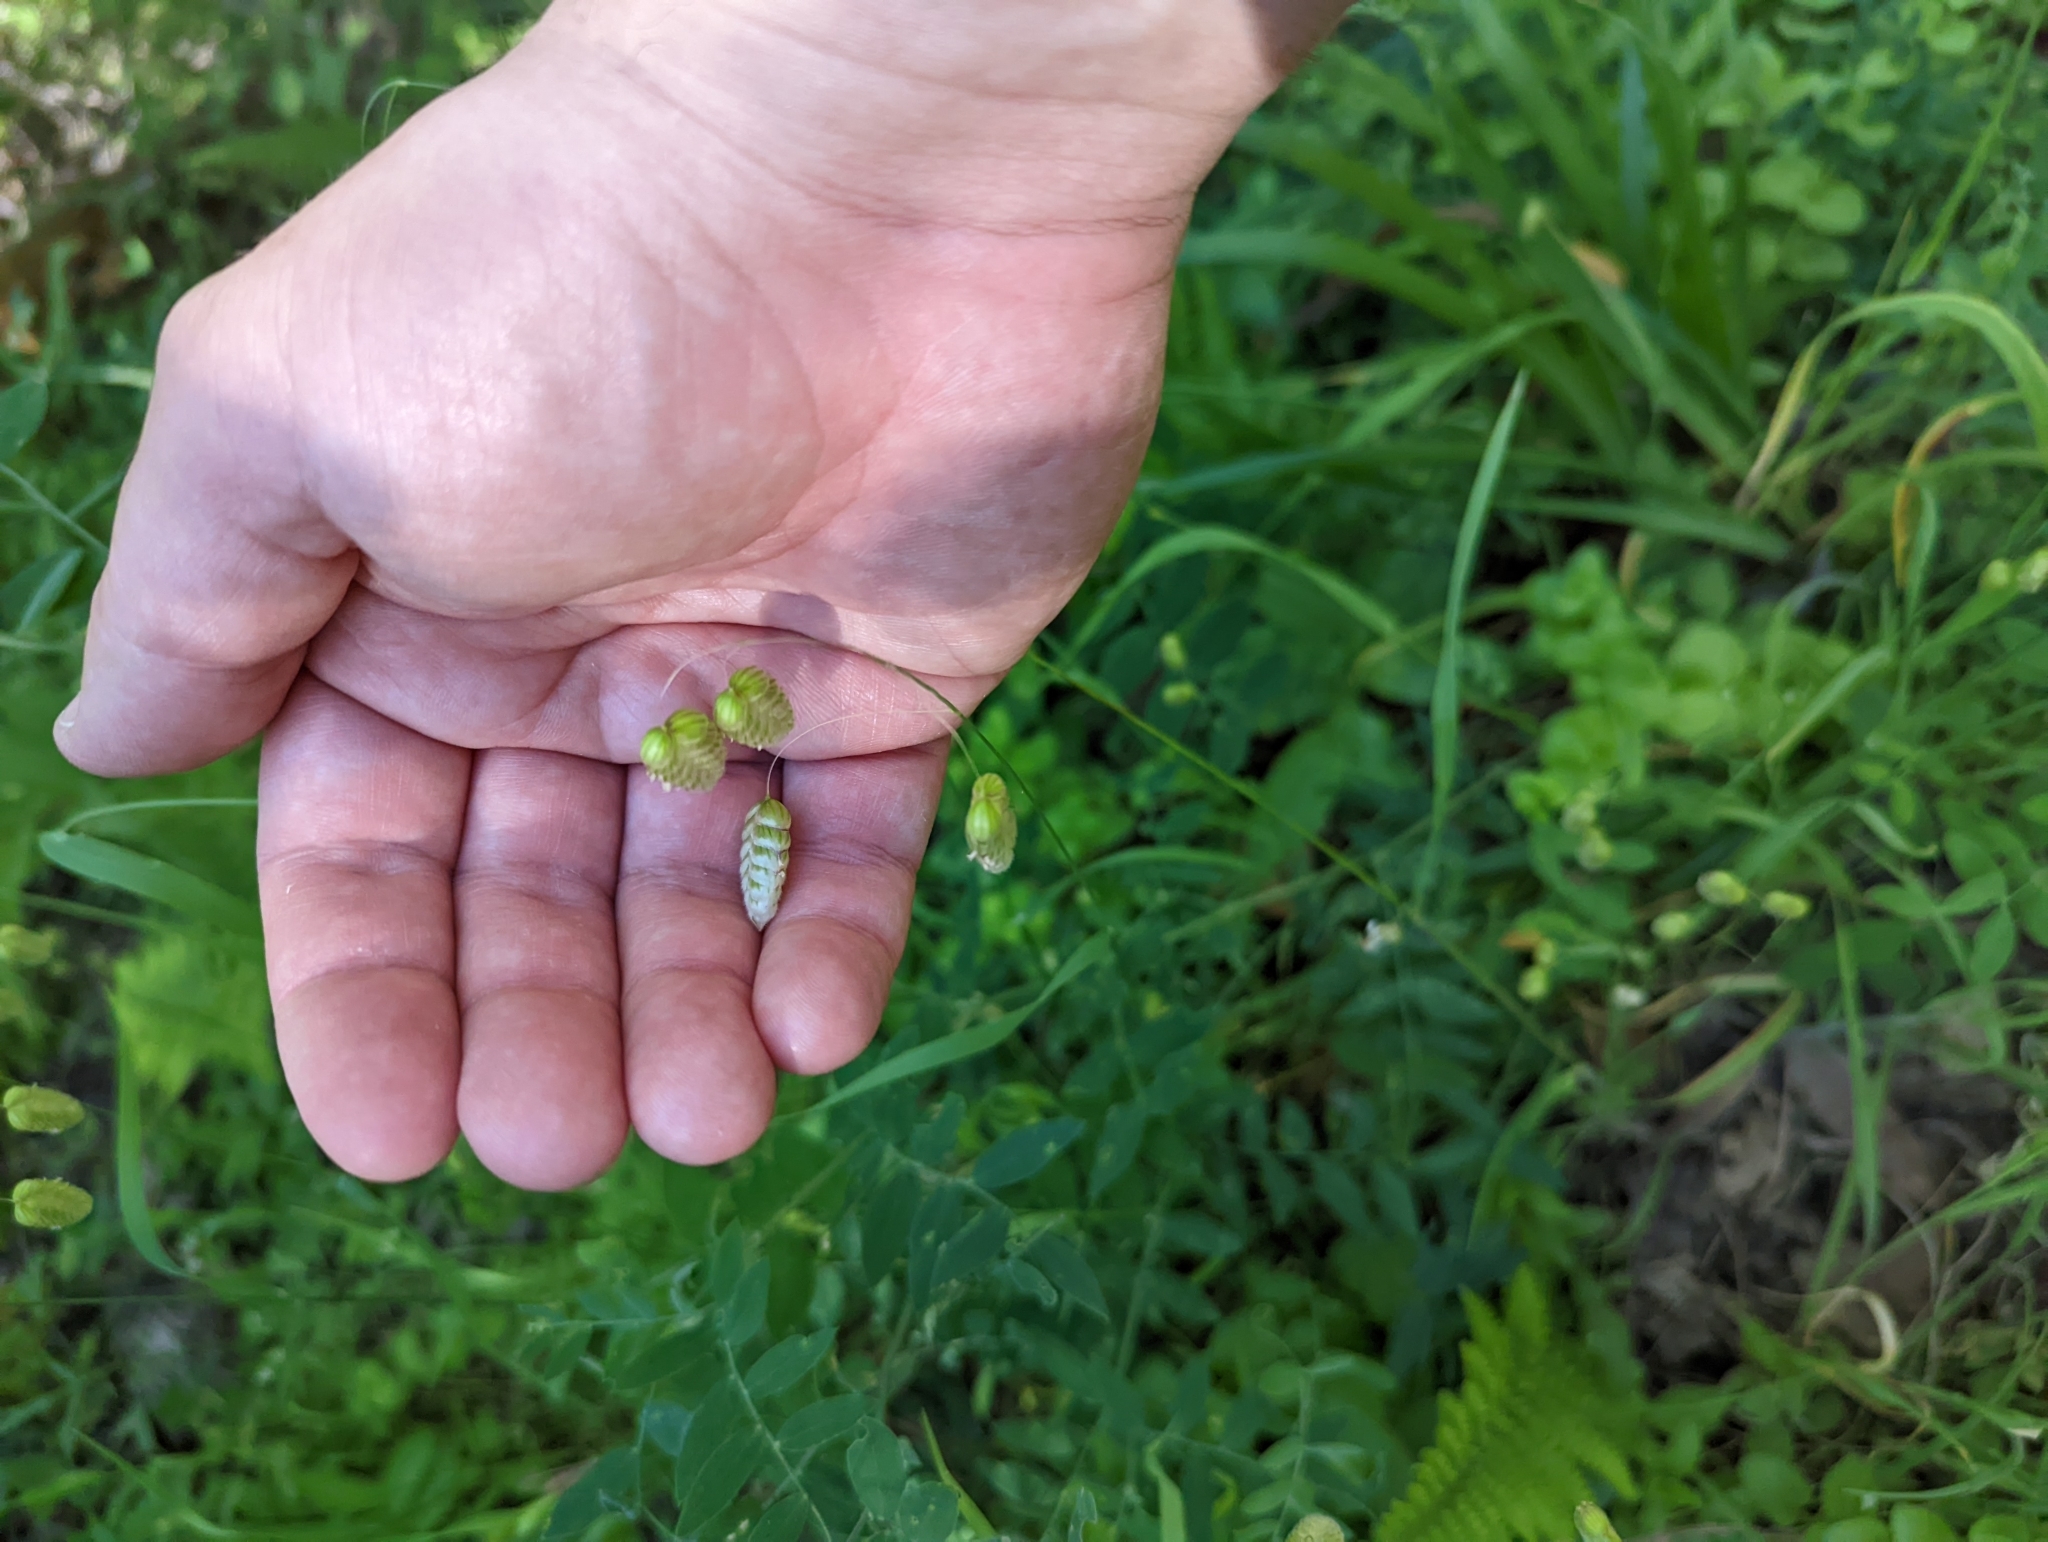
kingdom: Plantae
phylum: Tracheophyta
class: Liliopsida
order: Poales
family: Poaceae
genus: Briza
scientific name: Briza maxima
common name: Big quakinggrass
